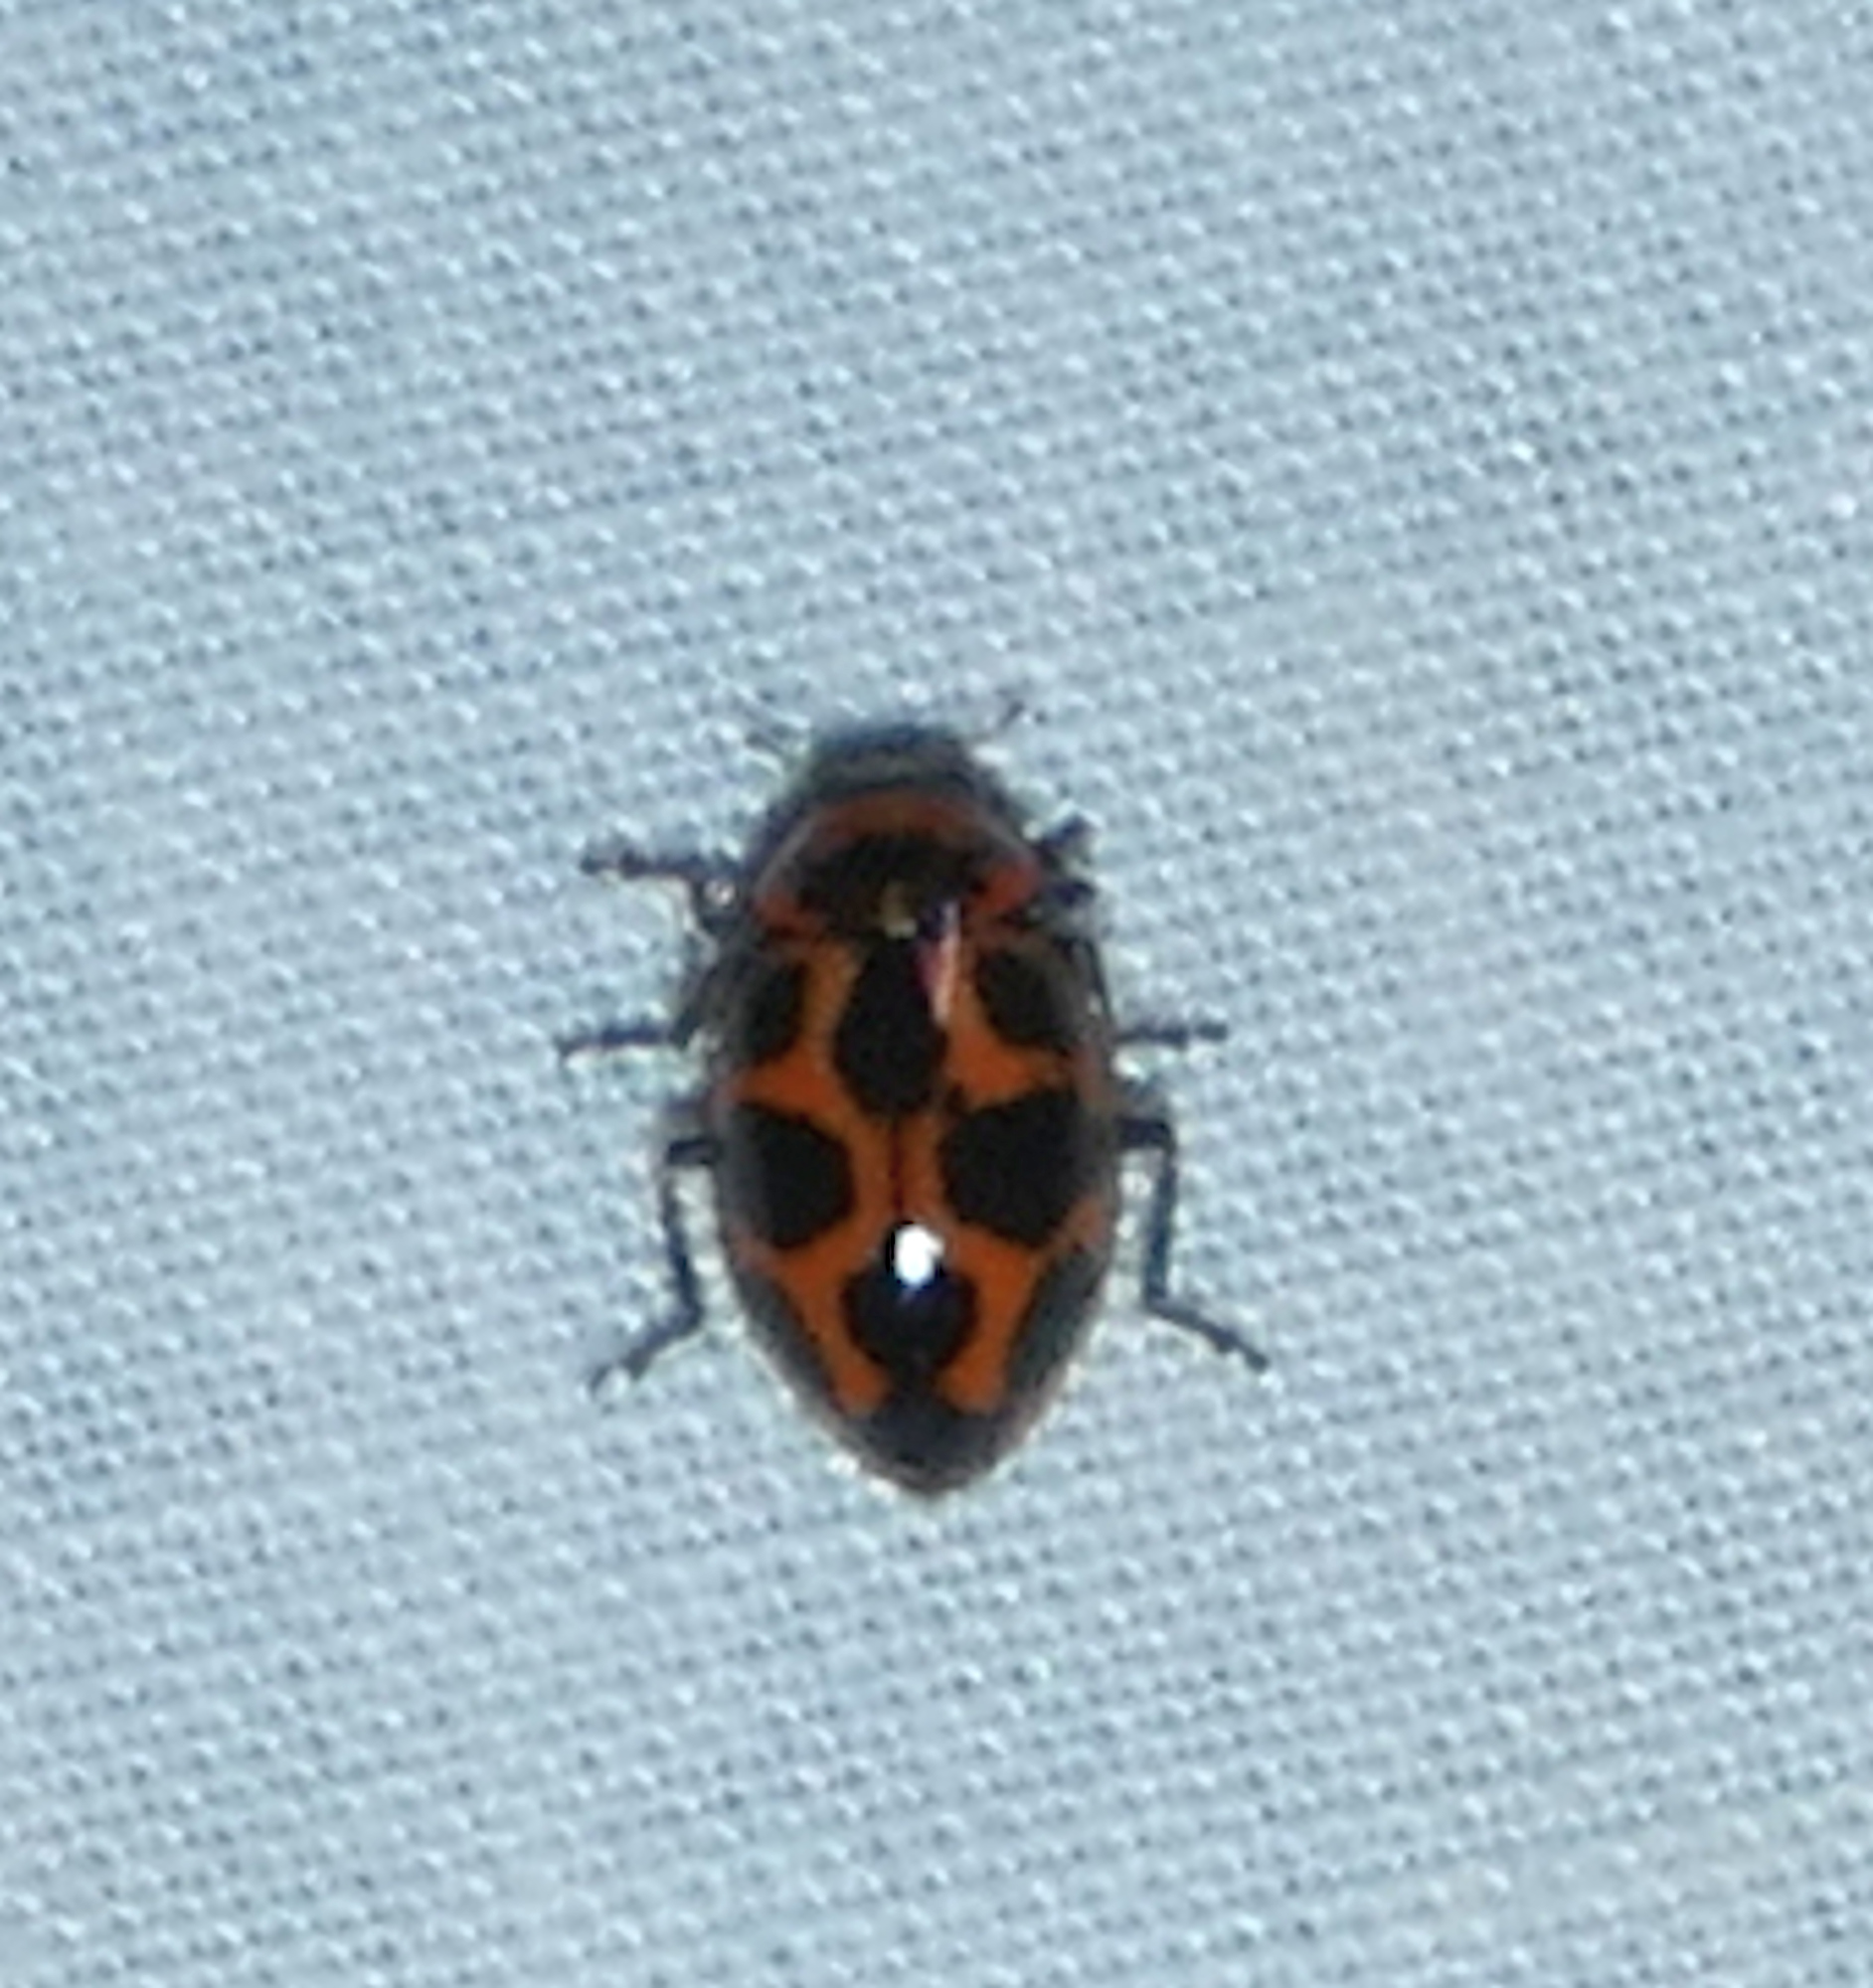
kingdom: Animalia
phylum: Arthropoda
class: Insecta
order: Coleoptera
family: Coccinellidae
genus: Naemia
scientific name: Naemia seriata
